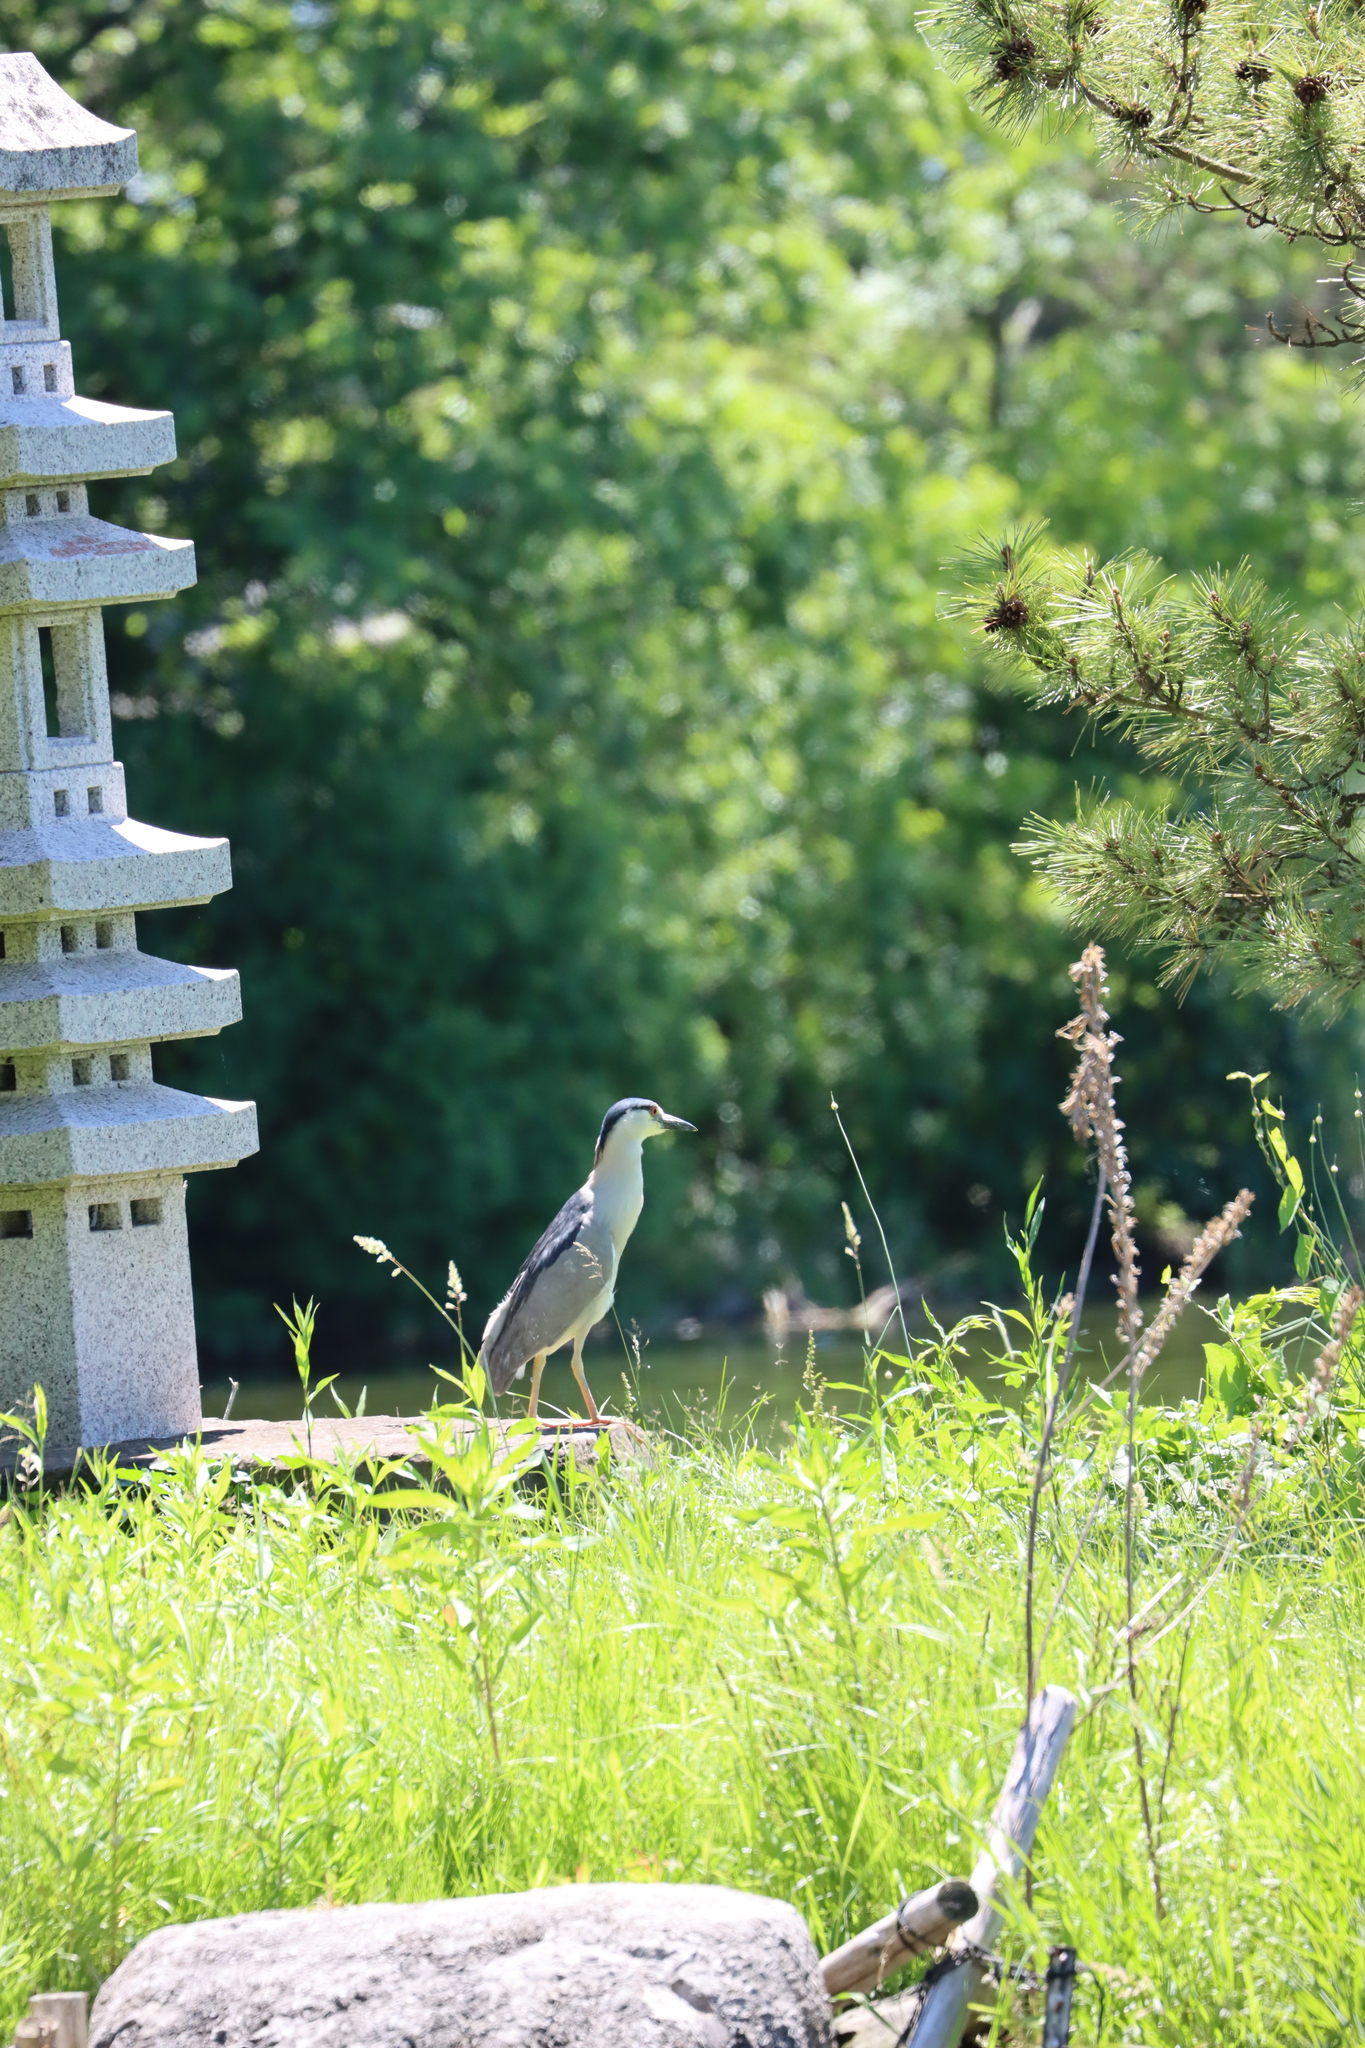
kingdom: Animalia
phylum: Chordata
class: Aves
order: Pelecaniformes
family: Ardeidae
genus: Nycticorax
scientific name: Nycticorax nycticorax
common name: Black-crowned night heron
